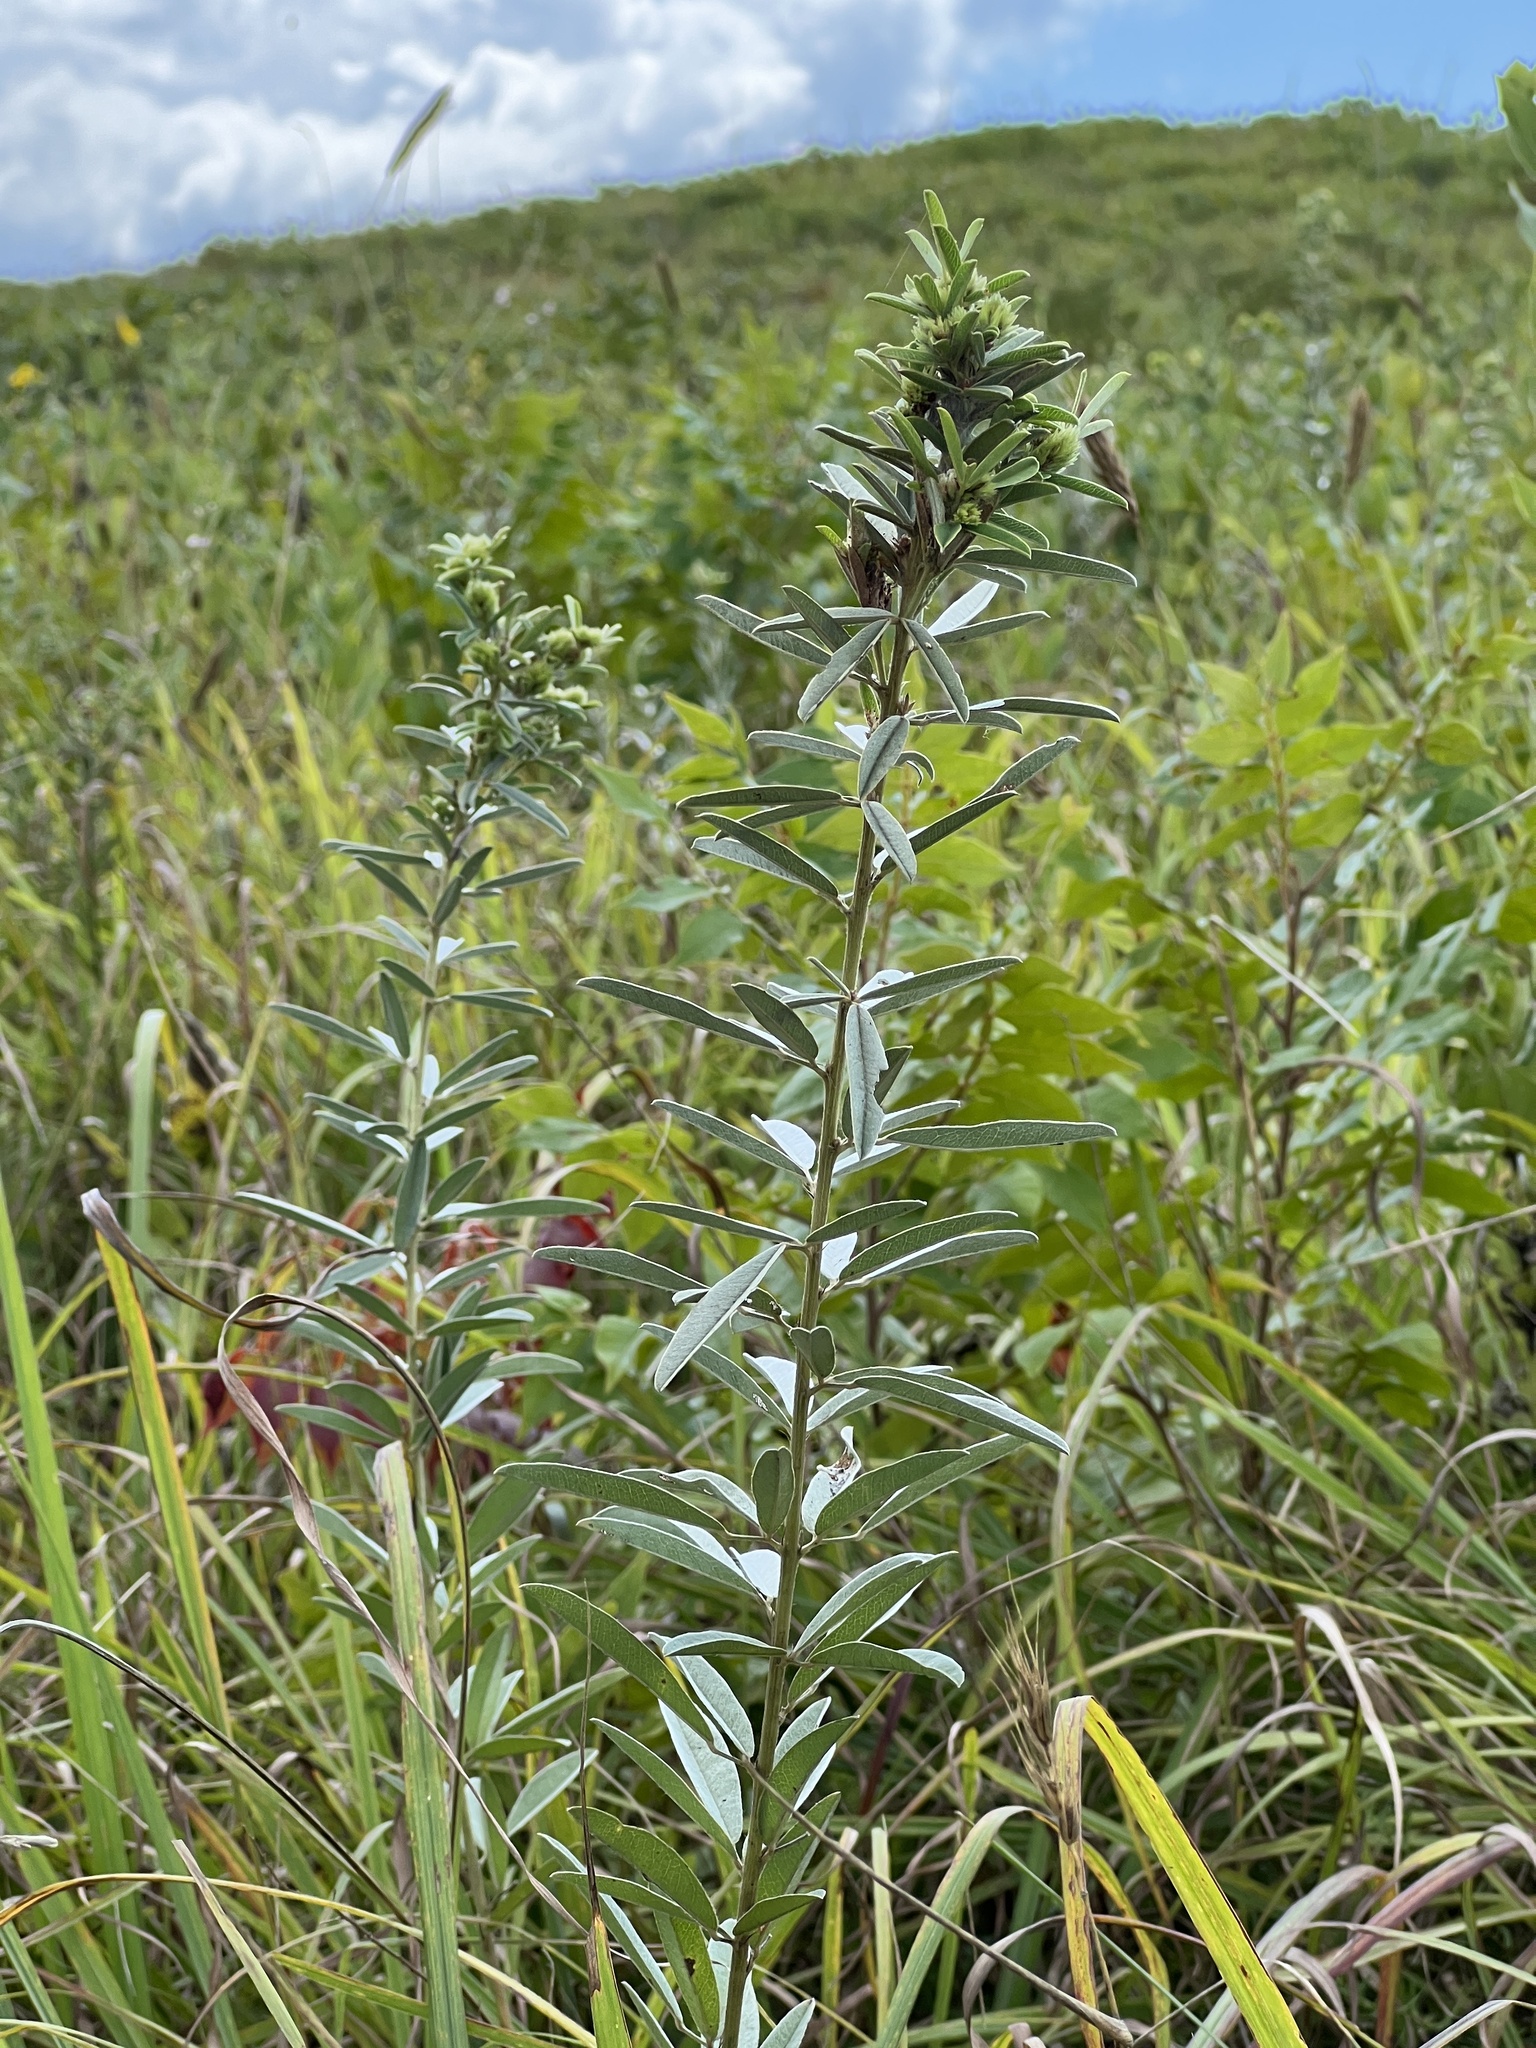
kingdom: Plantae
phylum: Tracheophyta
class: Magnoliopsida
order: Fabales
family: Fabaceae
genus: Lespedeza
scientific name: Lespedeza capitata
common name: Dusty clover
